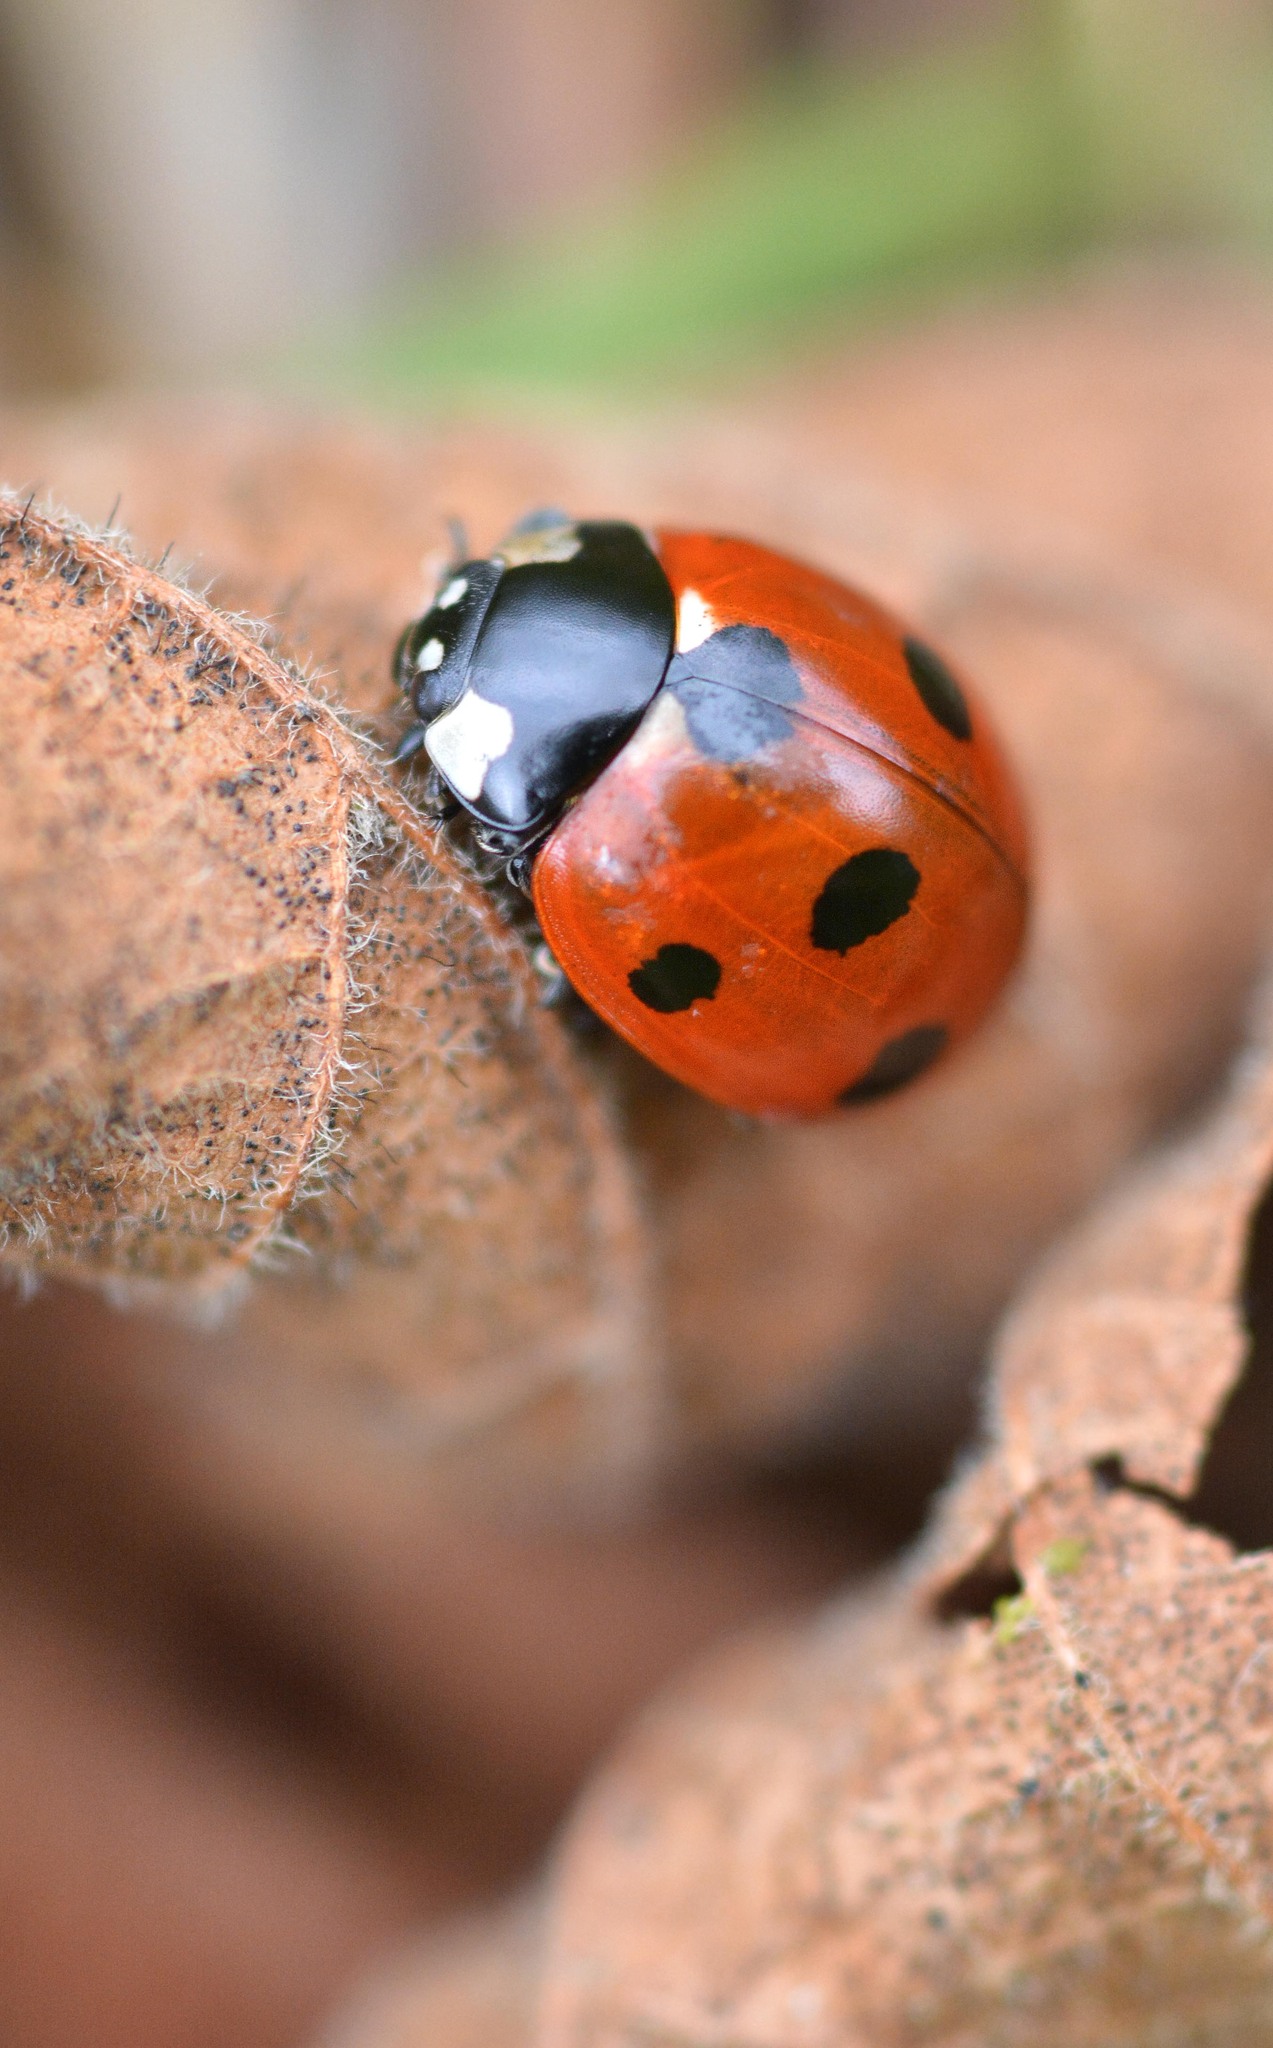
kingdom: Animalia
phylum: Arthropoda
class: Insecta
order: Coleoptera
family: Coccinellidae
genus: Coccinella
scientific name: Coccinella septempunctata
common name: Sevenspotted lady beetle
